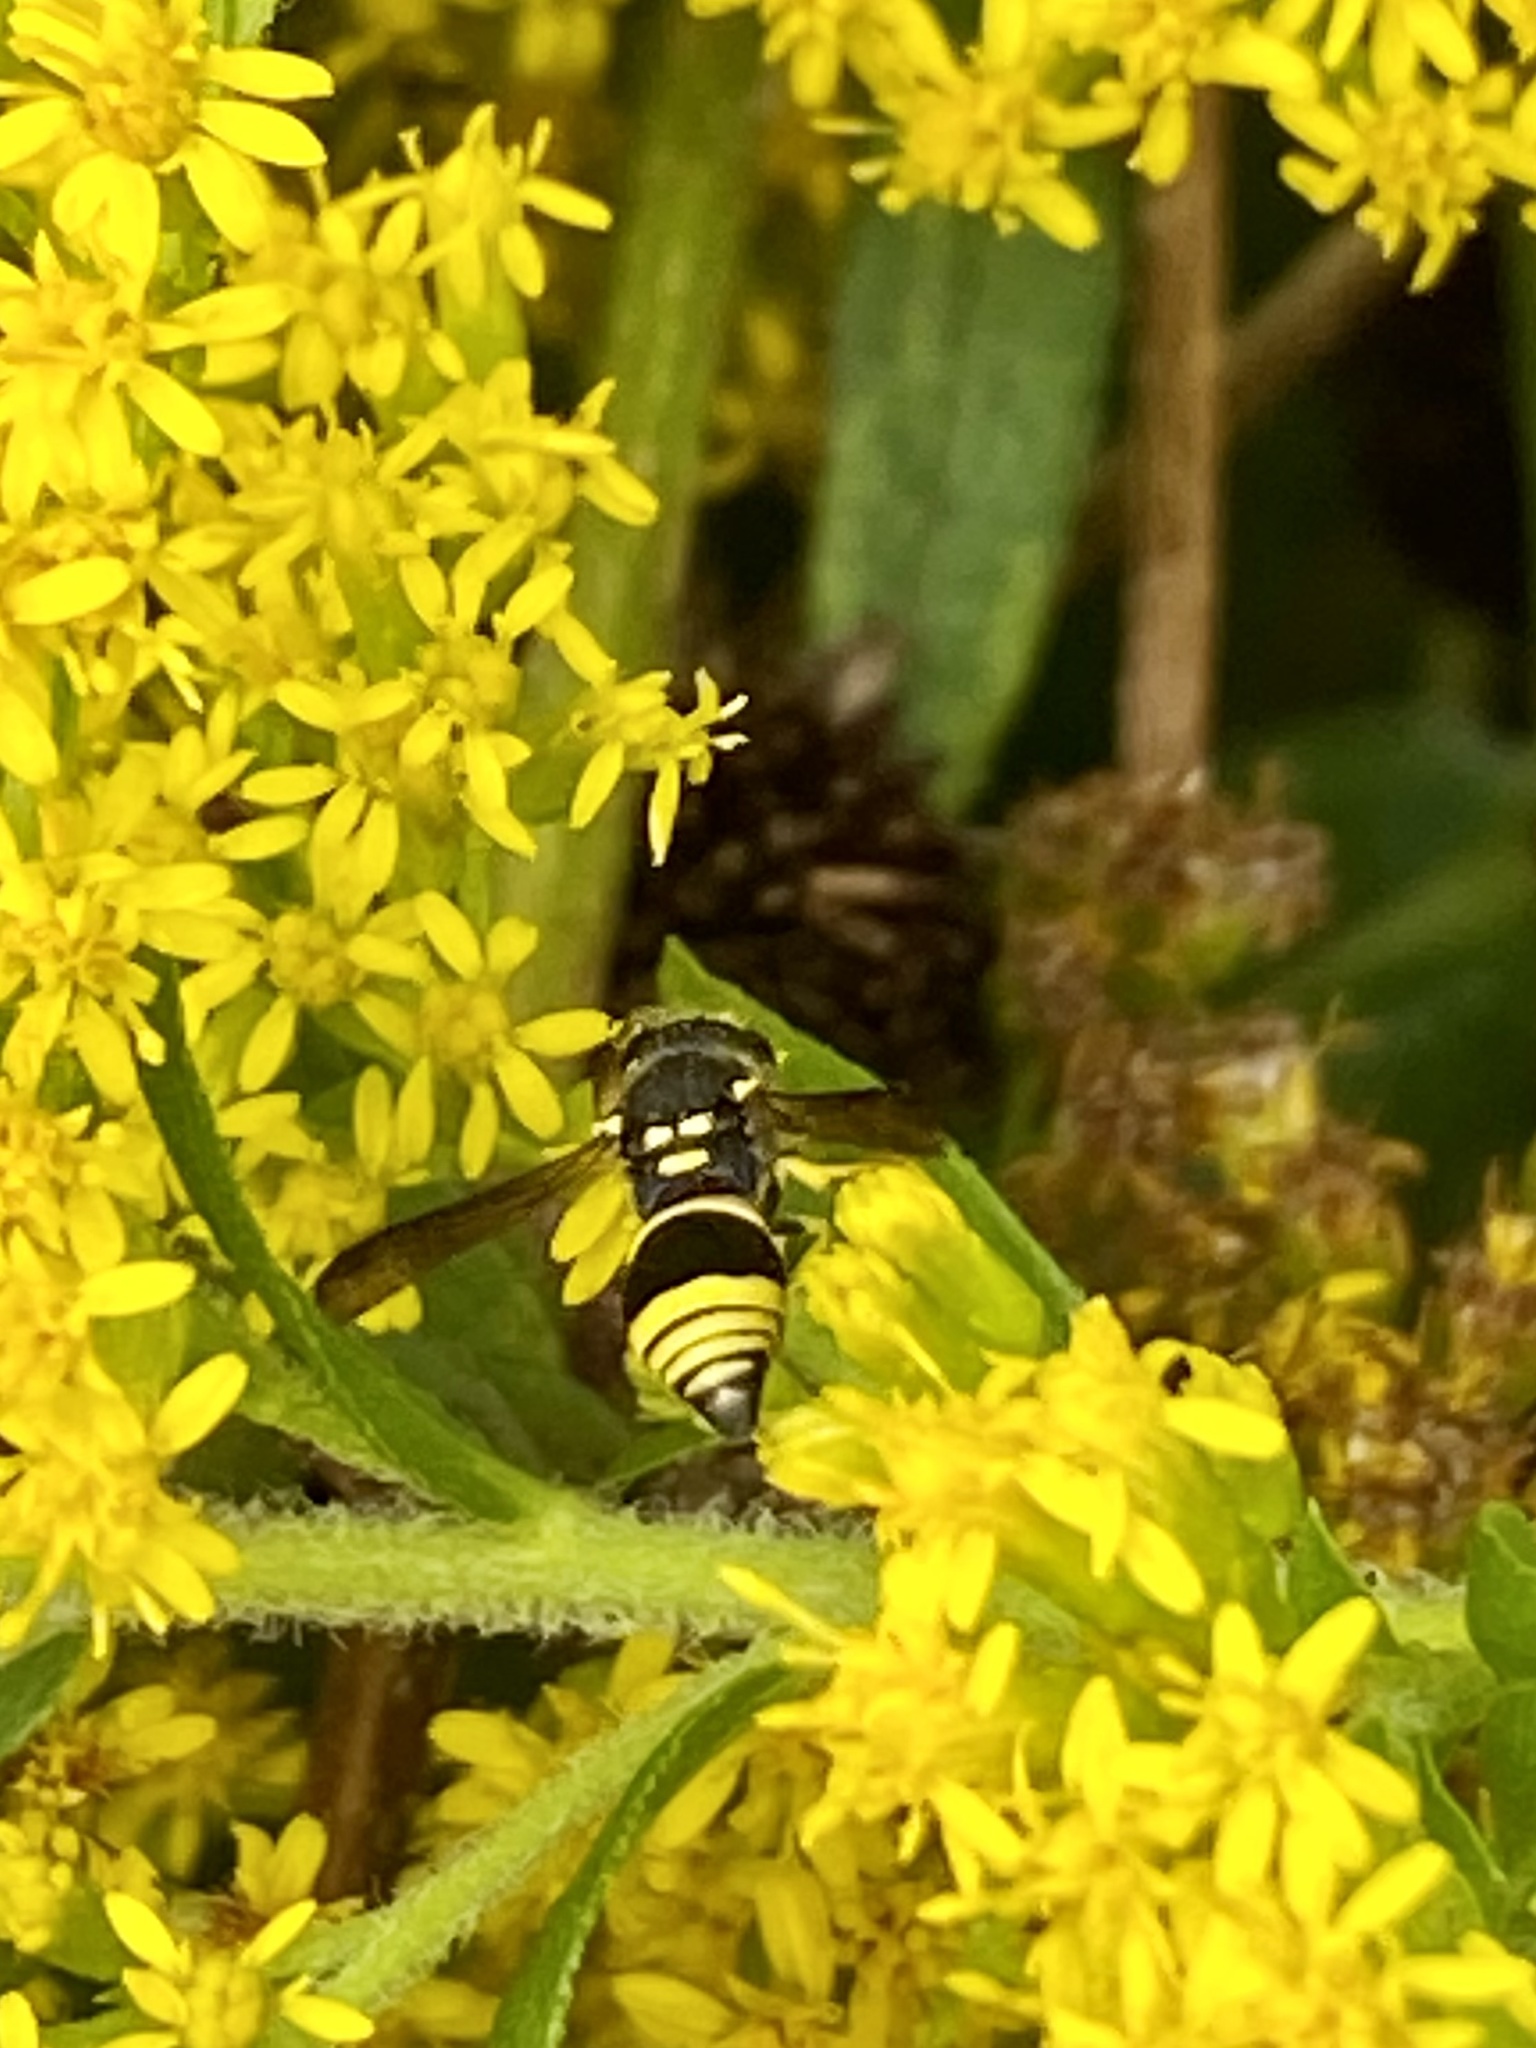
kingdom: Animalia
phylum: Arthropoda
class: Insecta
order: Hymenoptera
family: Vespidae
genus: Ancistrocerus
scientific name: Ancistrocerus gazella
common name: European tube wasp
